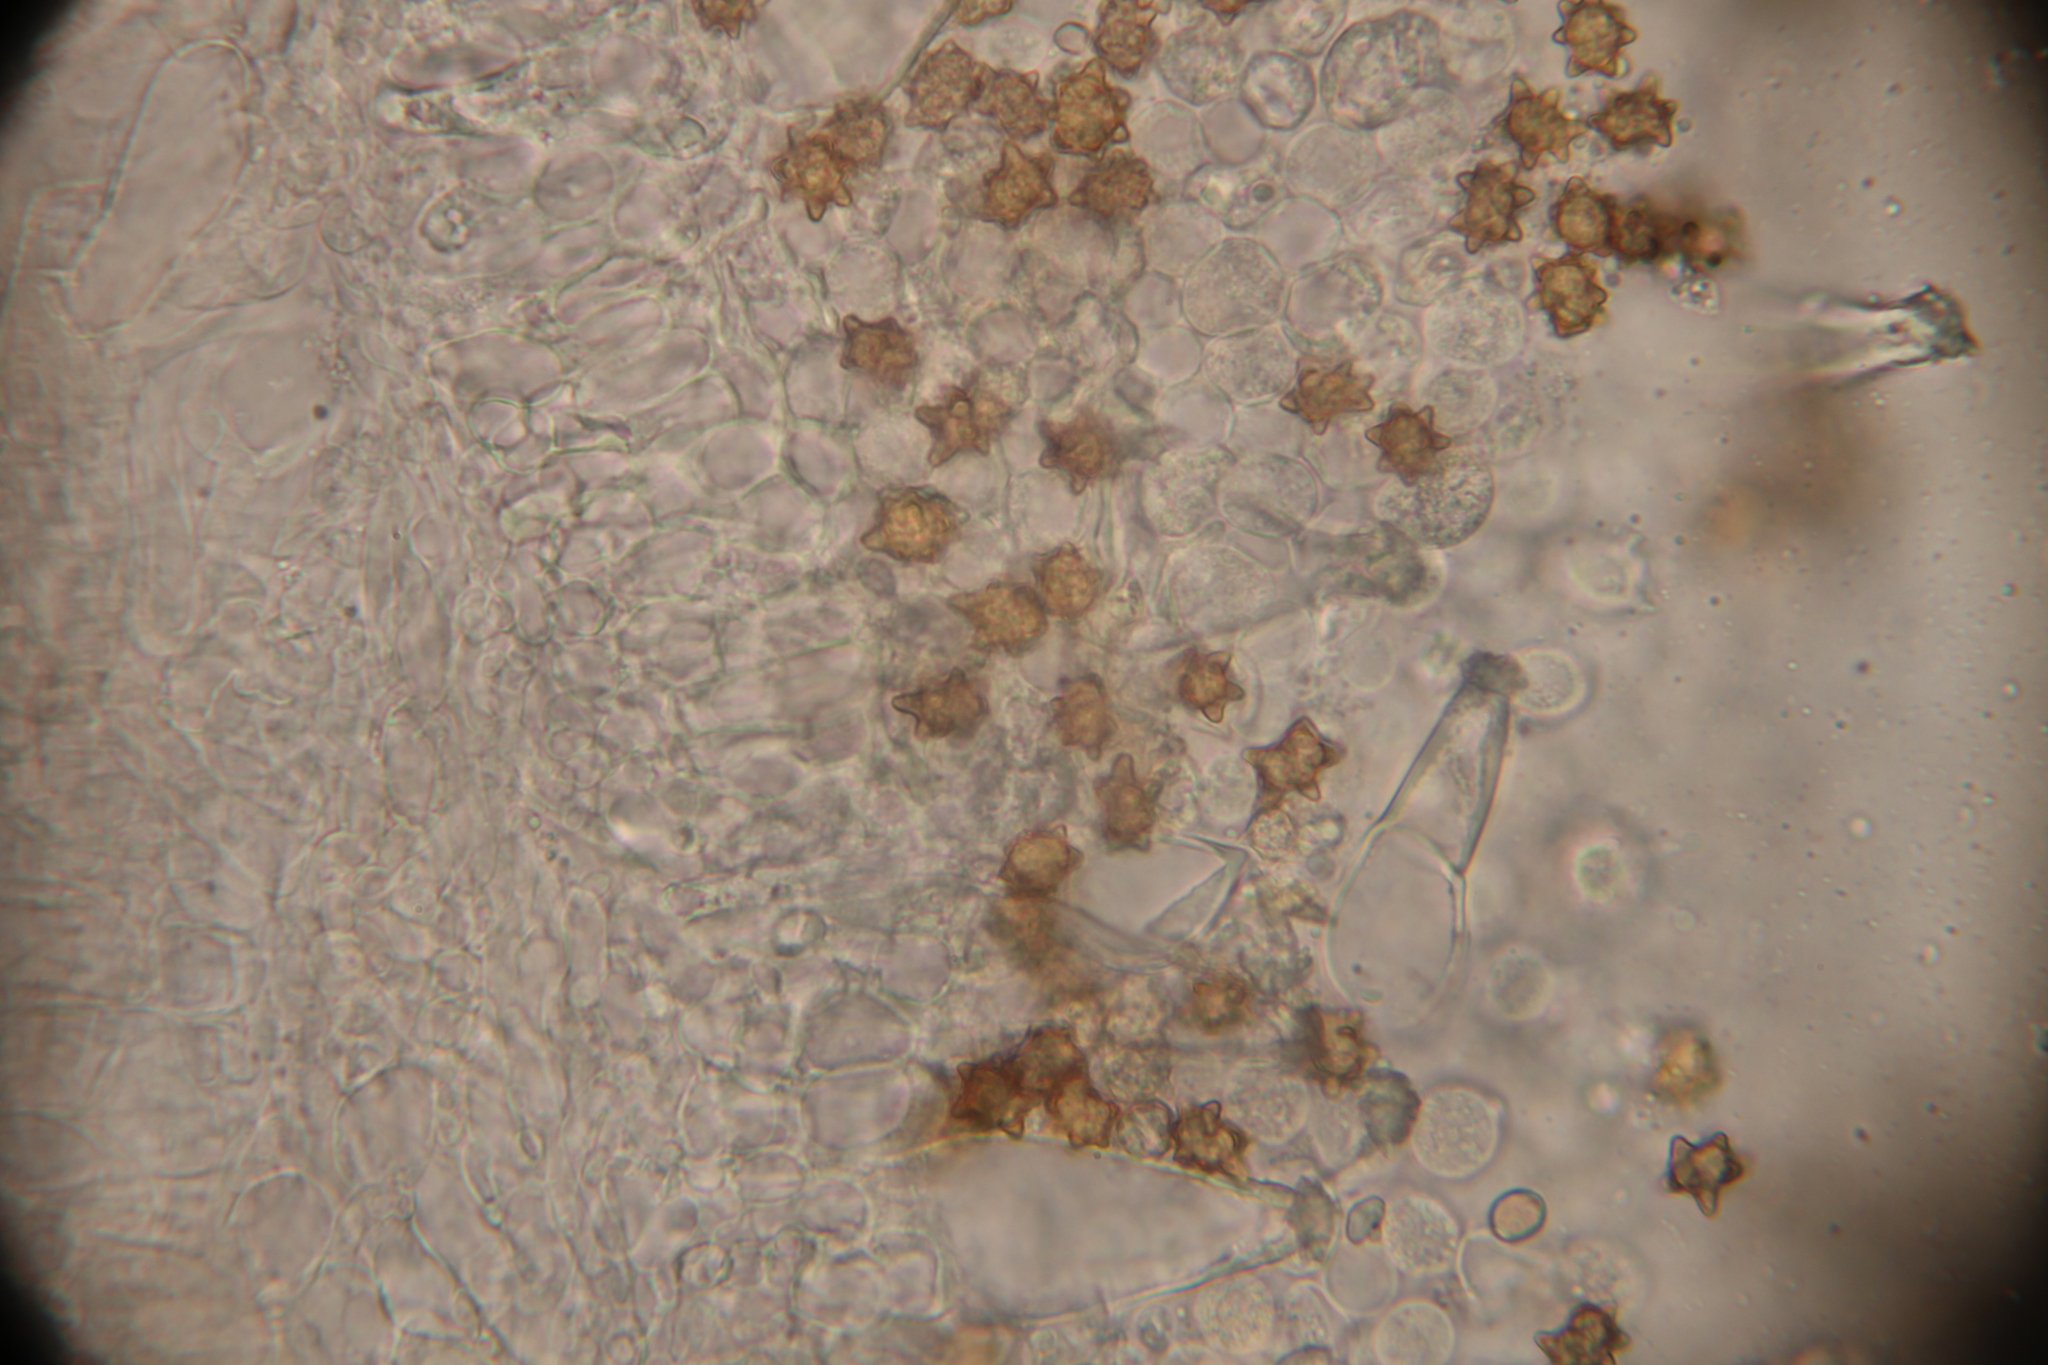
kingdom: Fungi
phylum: Basidiomycota
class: Agaricomycetes
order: Agaricales
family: Inocybaceae
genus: Inocybe
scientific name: Inocybe asterospora
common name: Star fibrecap
